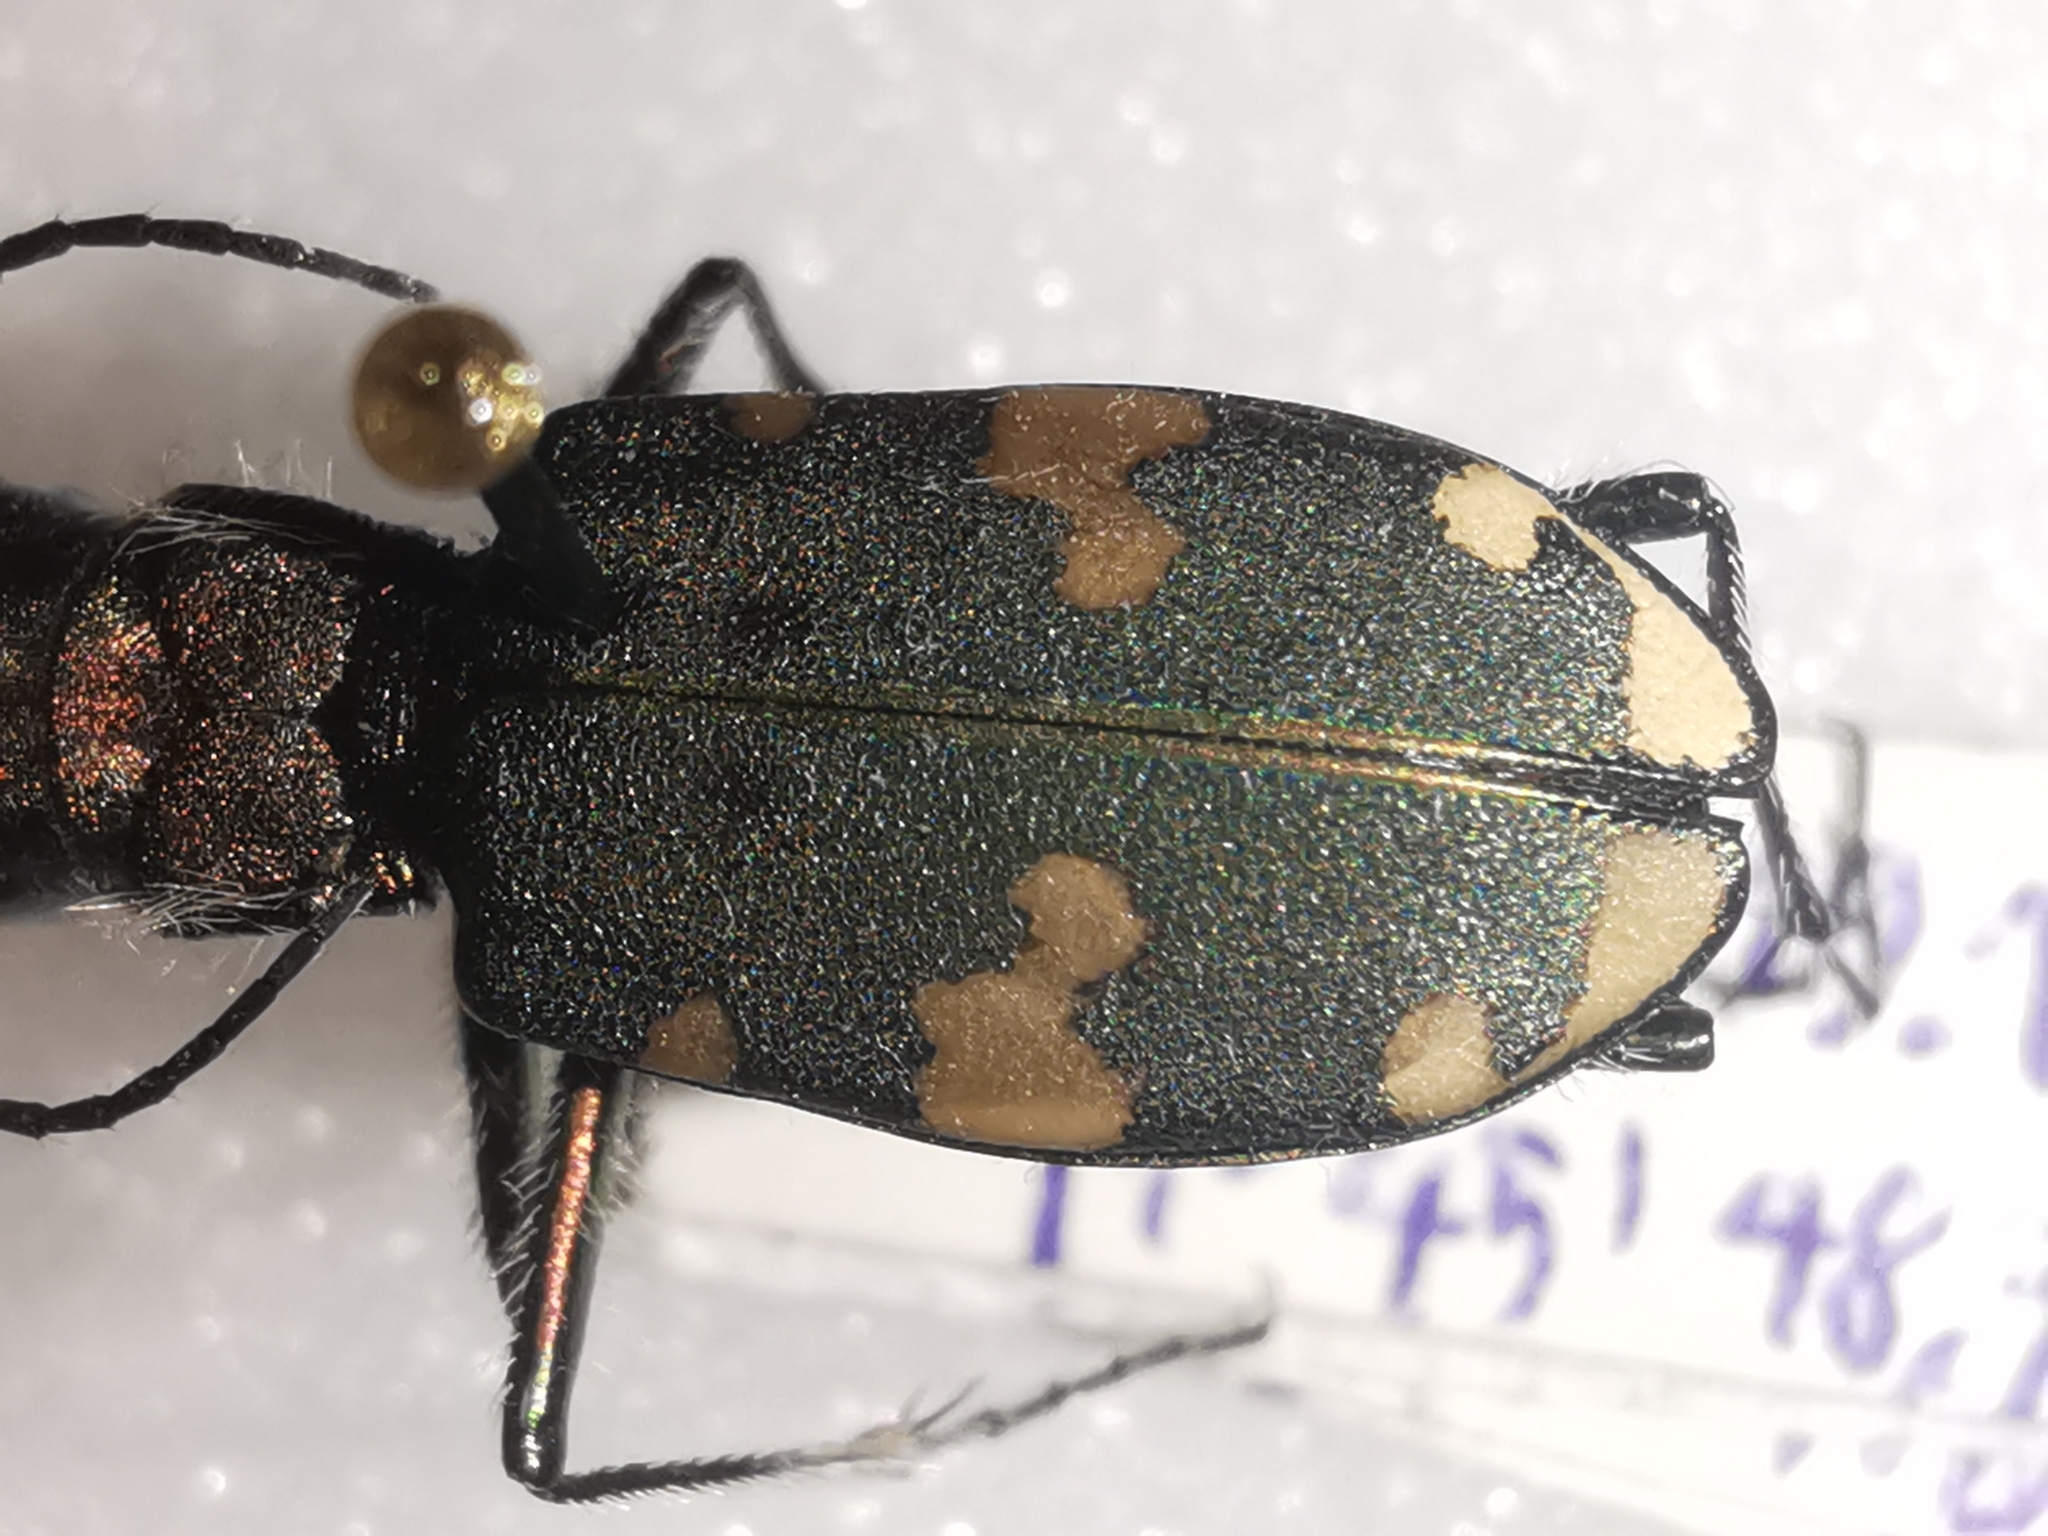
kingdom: Animalia
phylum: Arthropoda
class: Insecta
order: Coleoptera
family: Carabidae
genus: Cicindela
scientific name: Cicindela sylvicola
